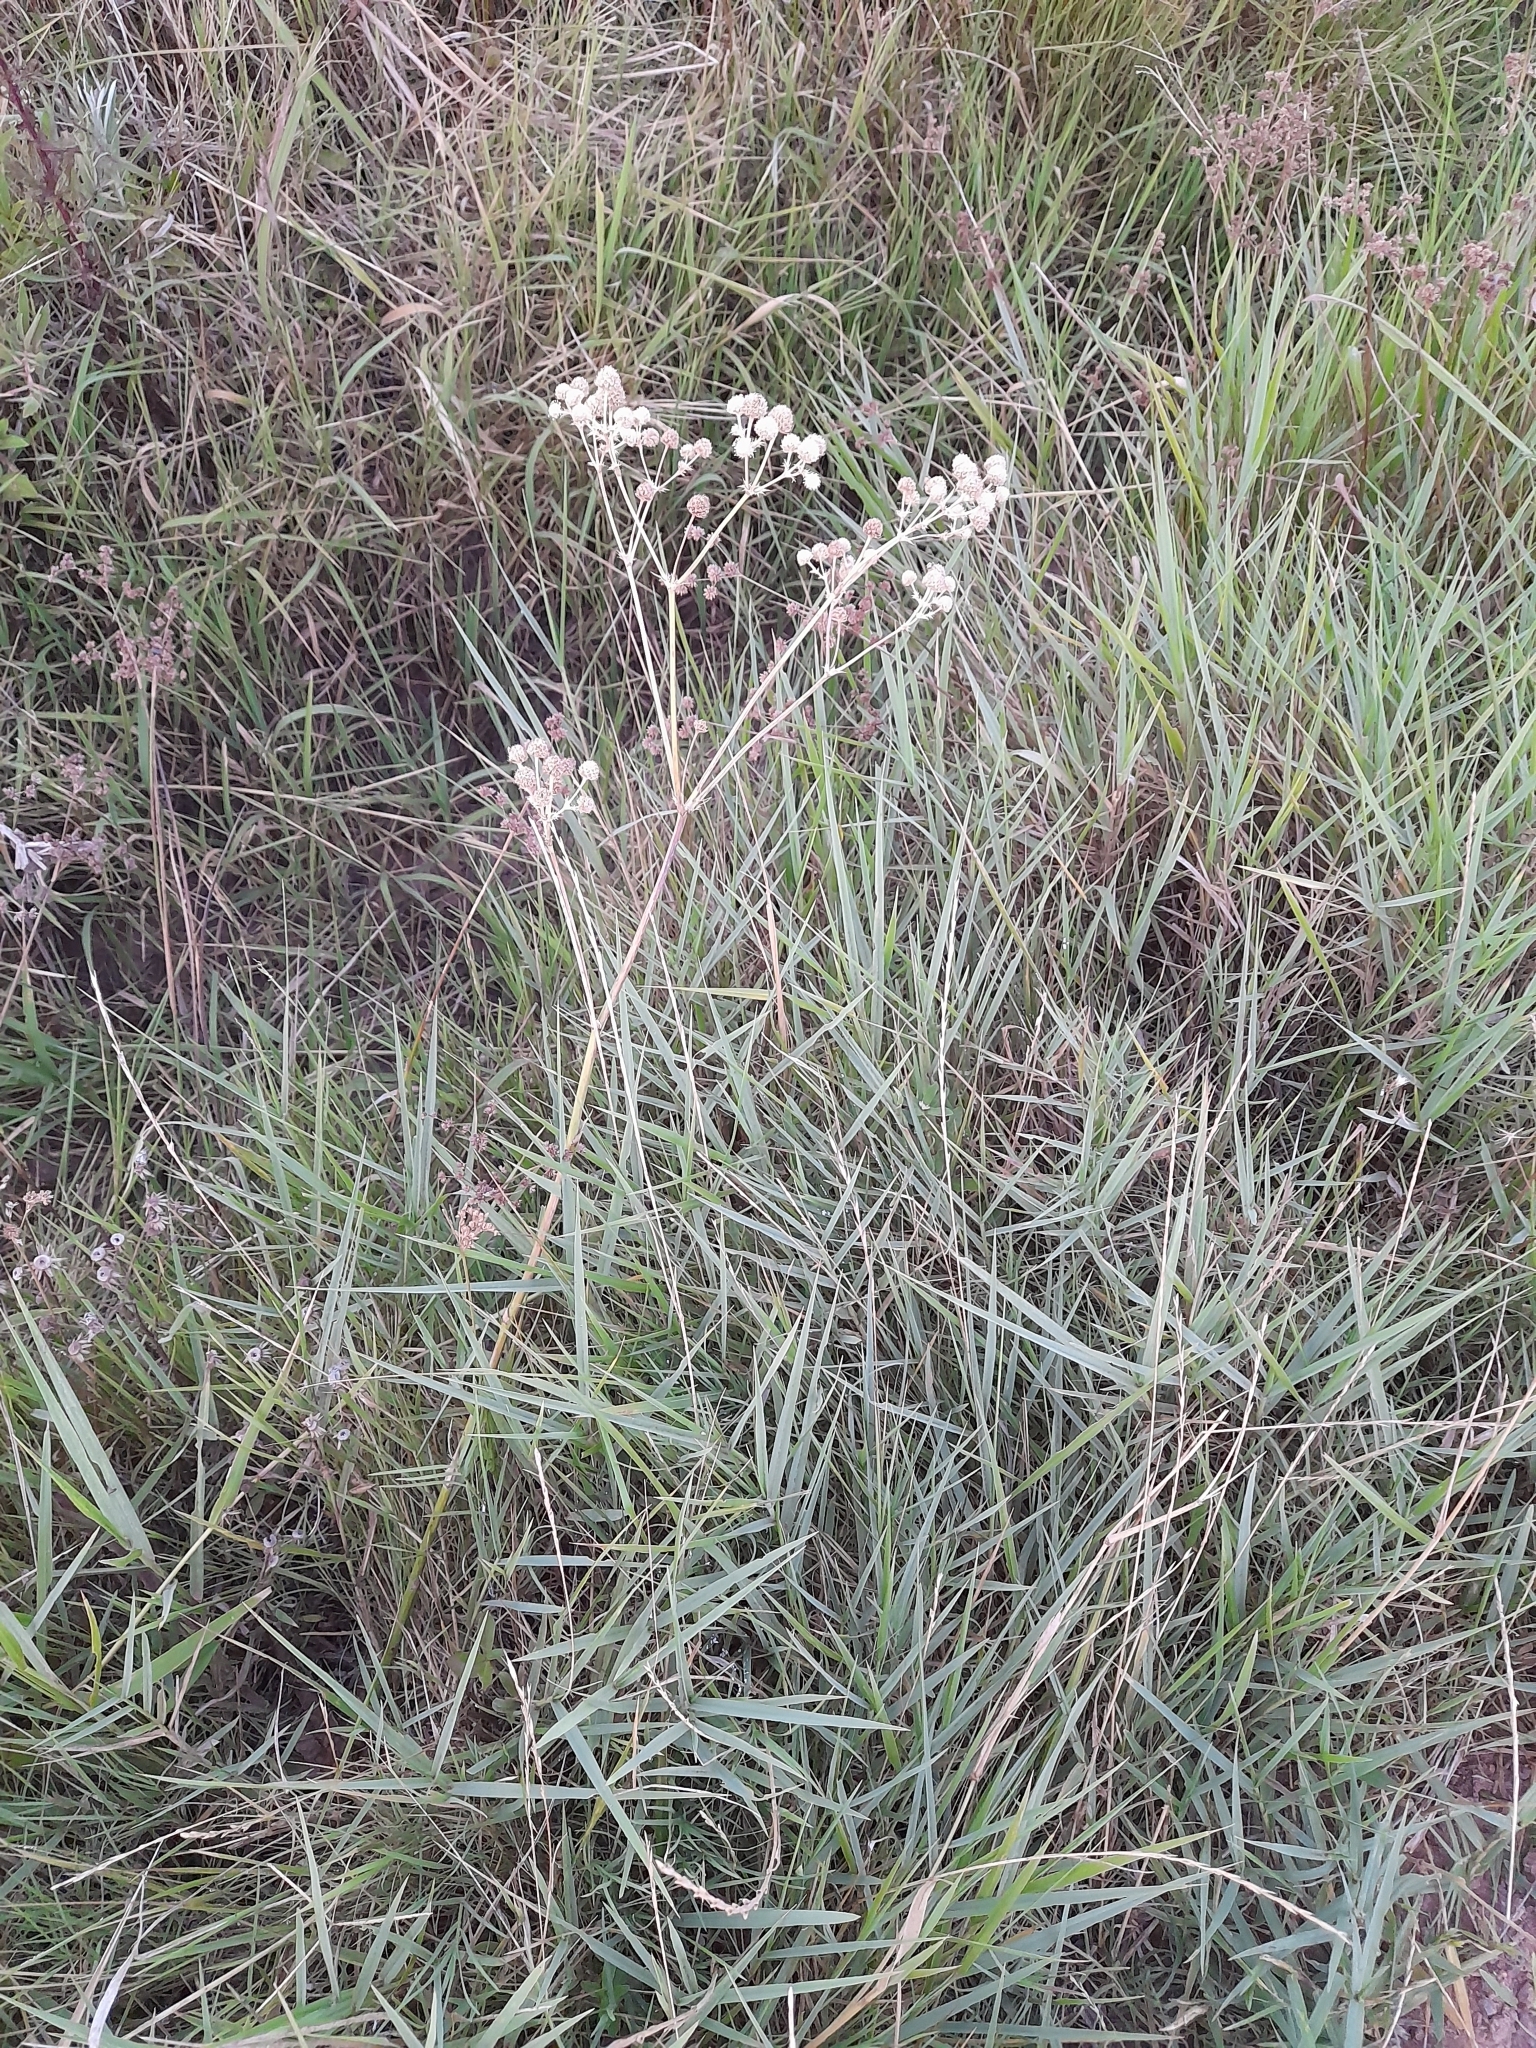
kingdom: Plantae
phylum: Tracheophyta
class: Magnoliopsida
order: Apiales
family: Apiaceae
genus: Eryngium
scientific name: Eryngium elegans
